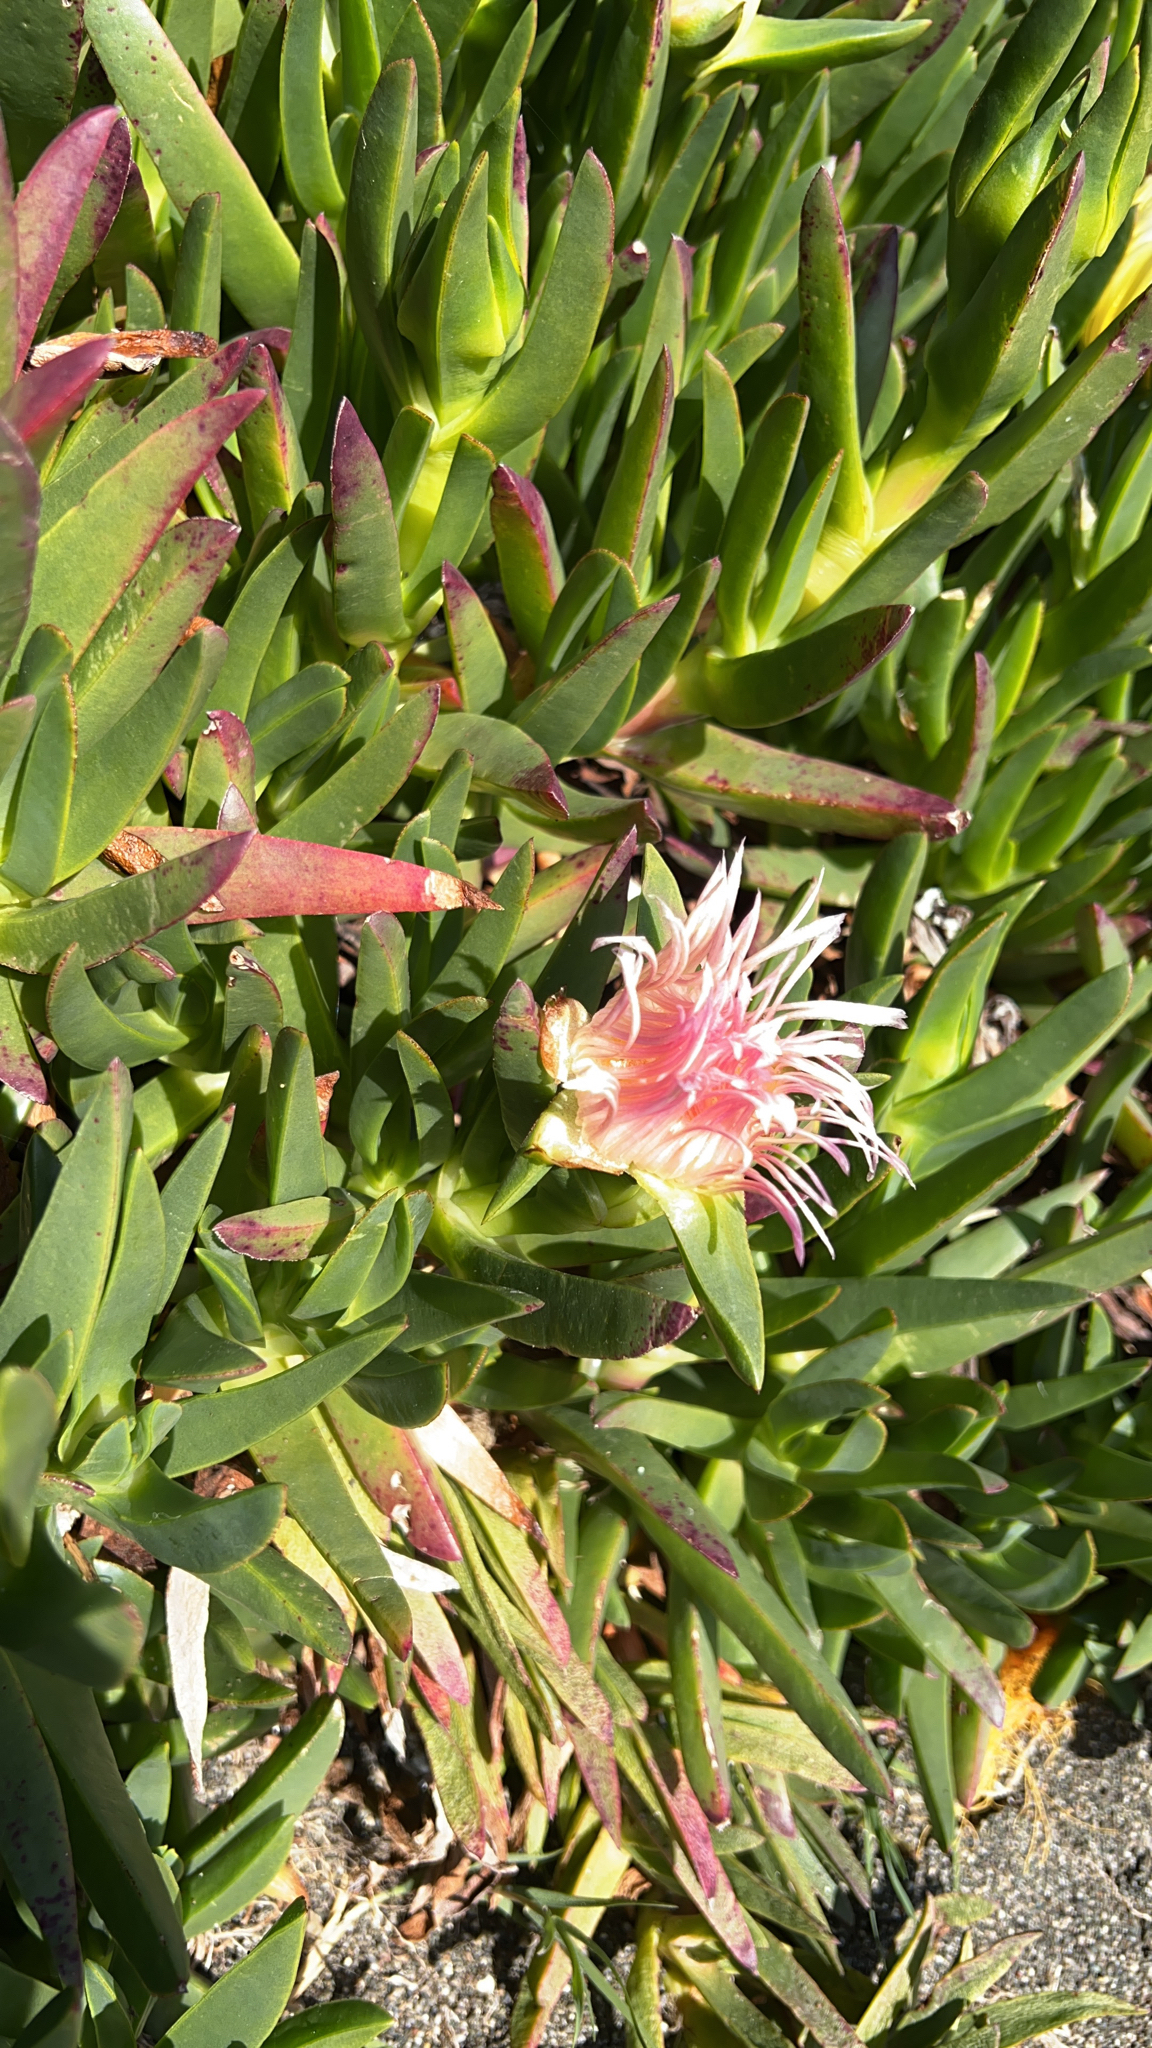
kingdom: Plantae
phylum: Tracheophyta
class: Magnoliopsida
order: Caryophyllales
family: Aizoaceae
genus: Carpobrotus
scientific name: Carpobrotus edulis
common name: Hottentot-fig
